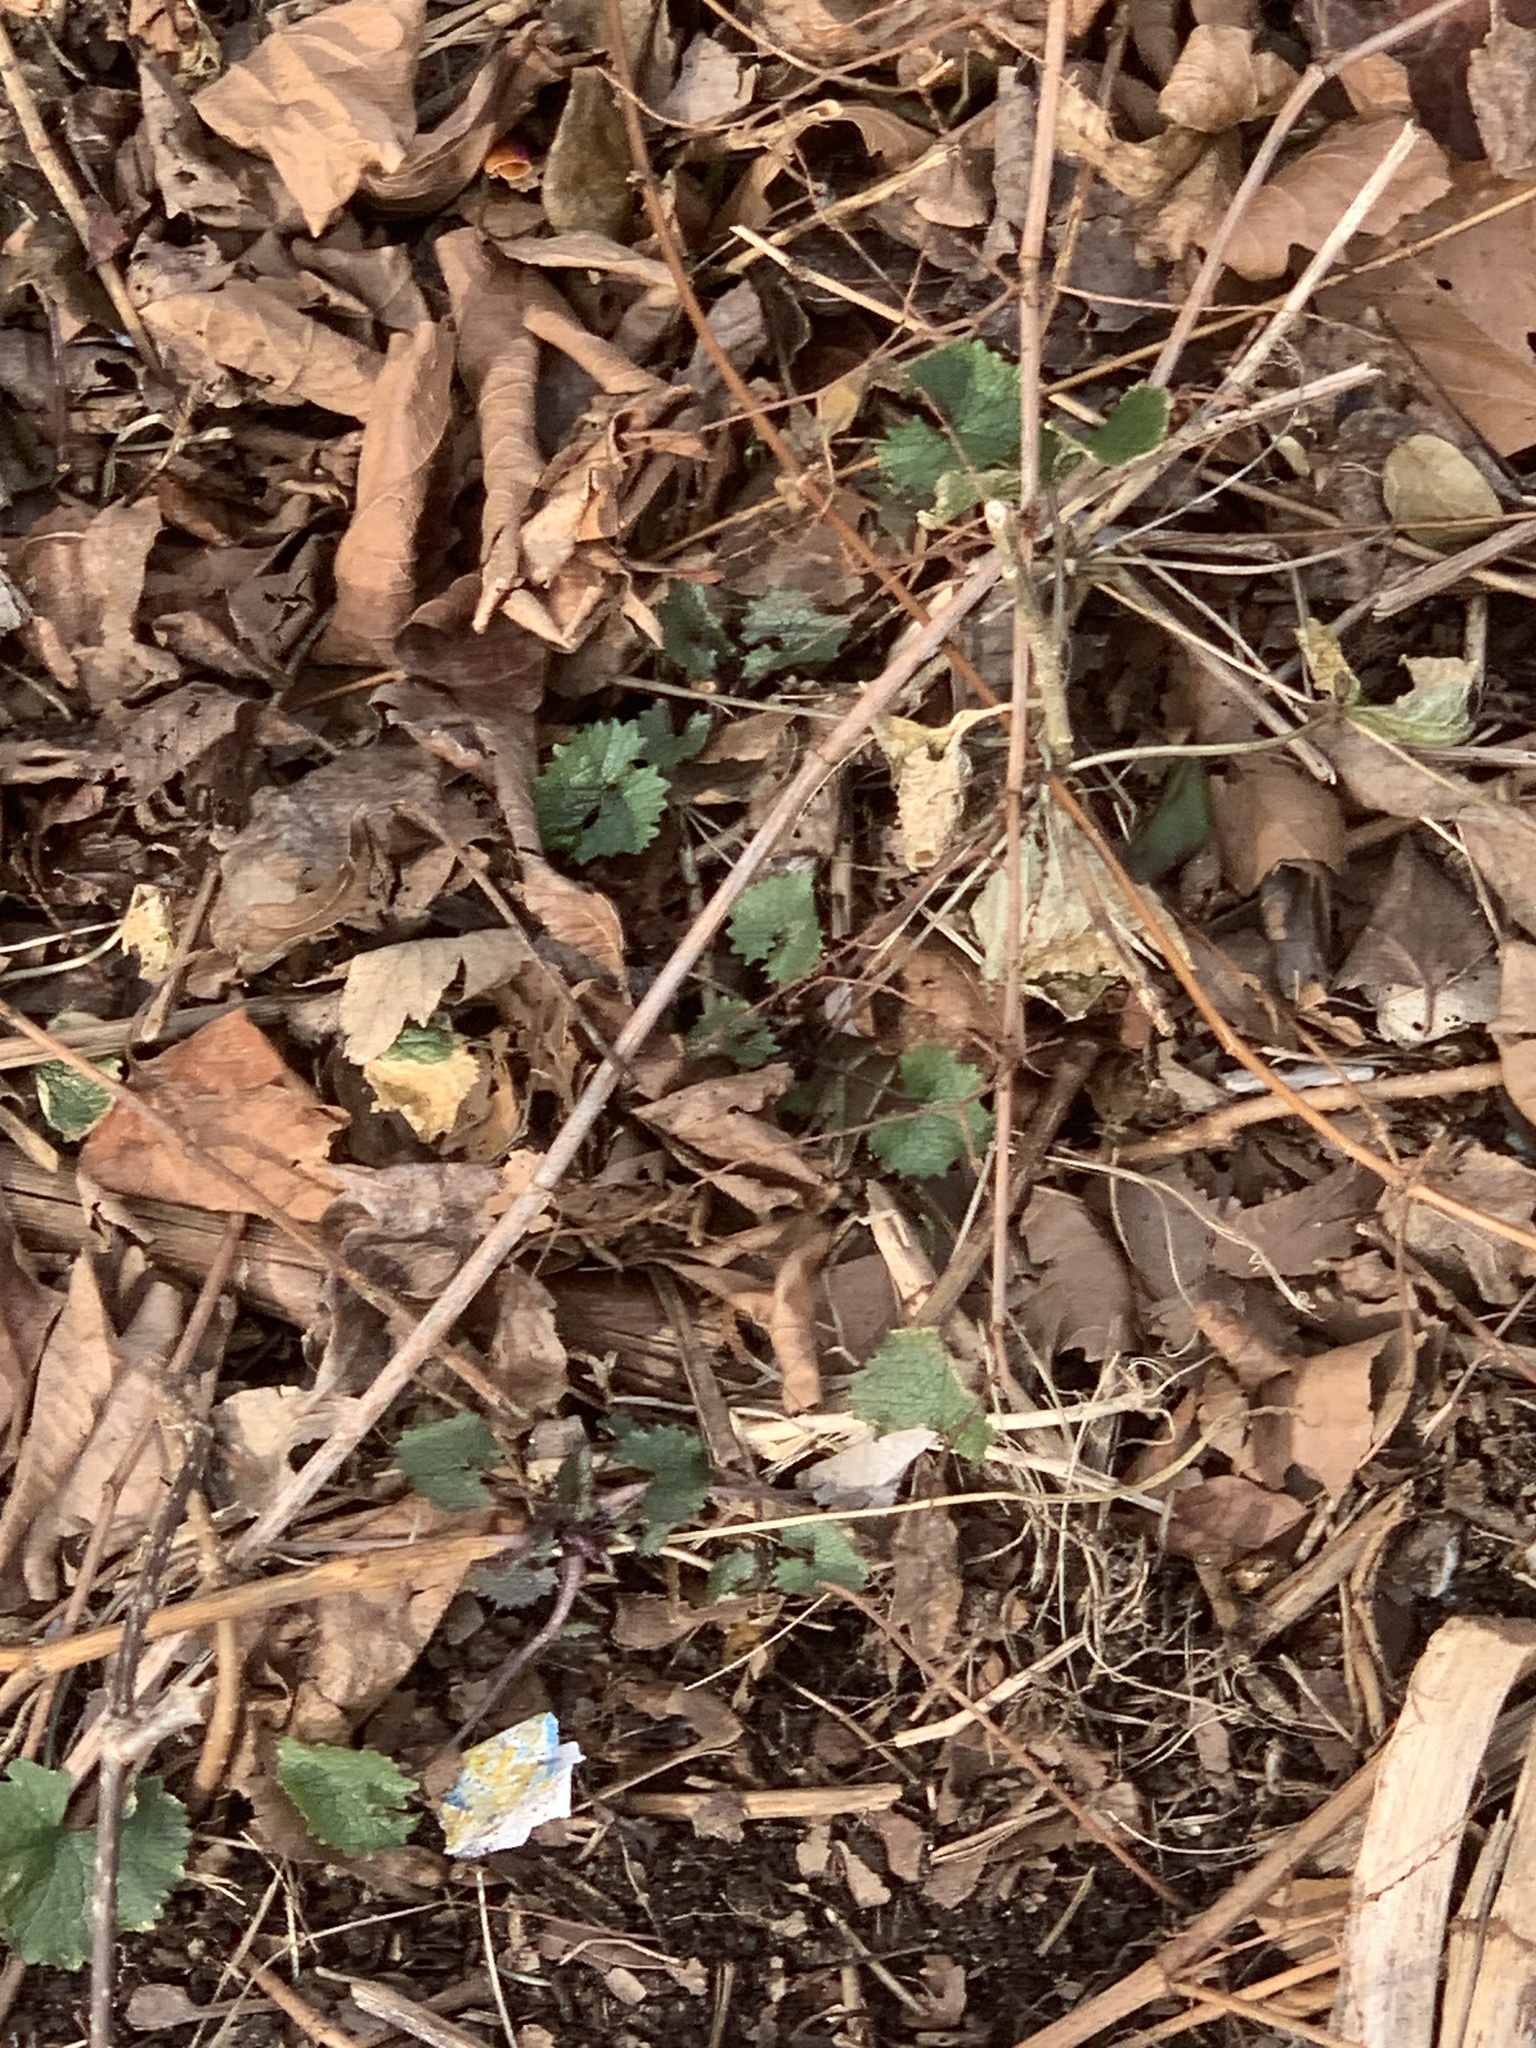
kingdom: Plantae
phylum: Tracheophyta
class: Magnoliopsida
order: Brassicales
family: Brassicaceae
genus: Alliaria
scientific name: Alliaria petiolata
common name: Garlic mustard
